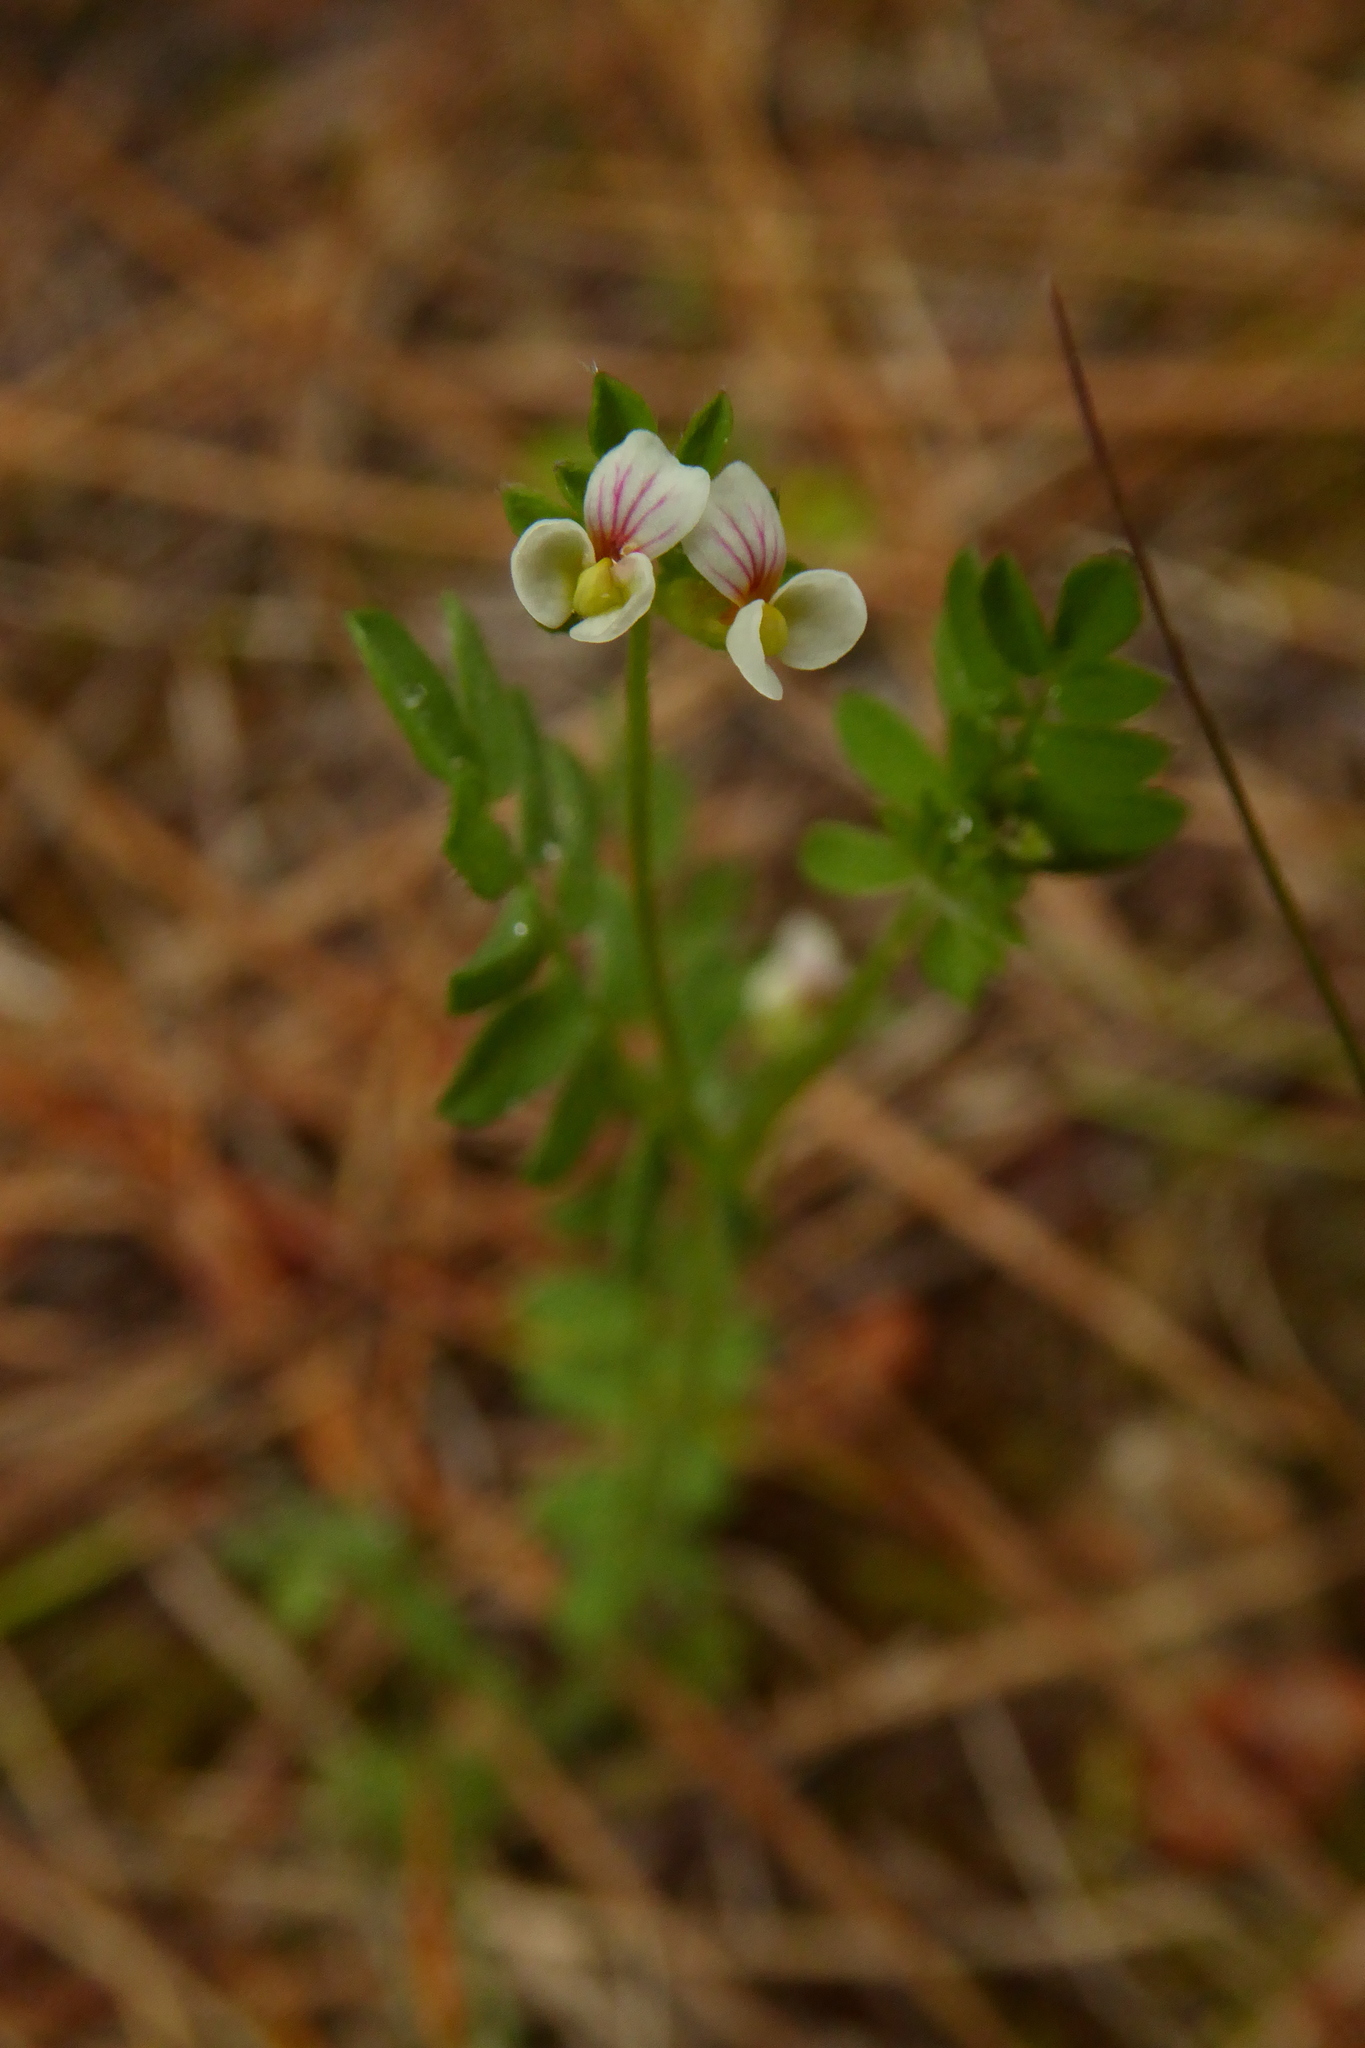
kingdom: Plantae
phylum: Tracheophyta
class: Magnoliopsida
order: Fabales
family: Fabaceae
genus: Ornithopus
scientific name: Ornithopus perpusillus
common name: Bird's-foot
